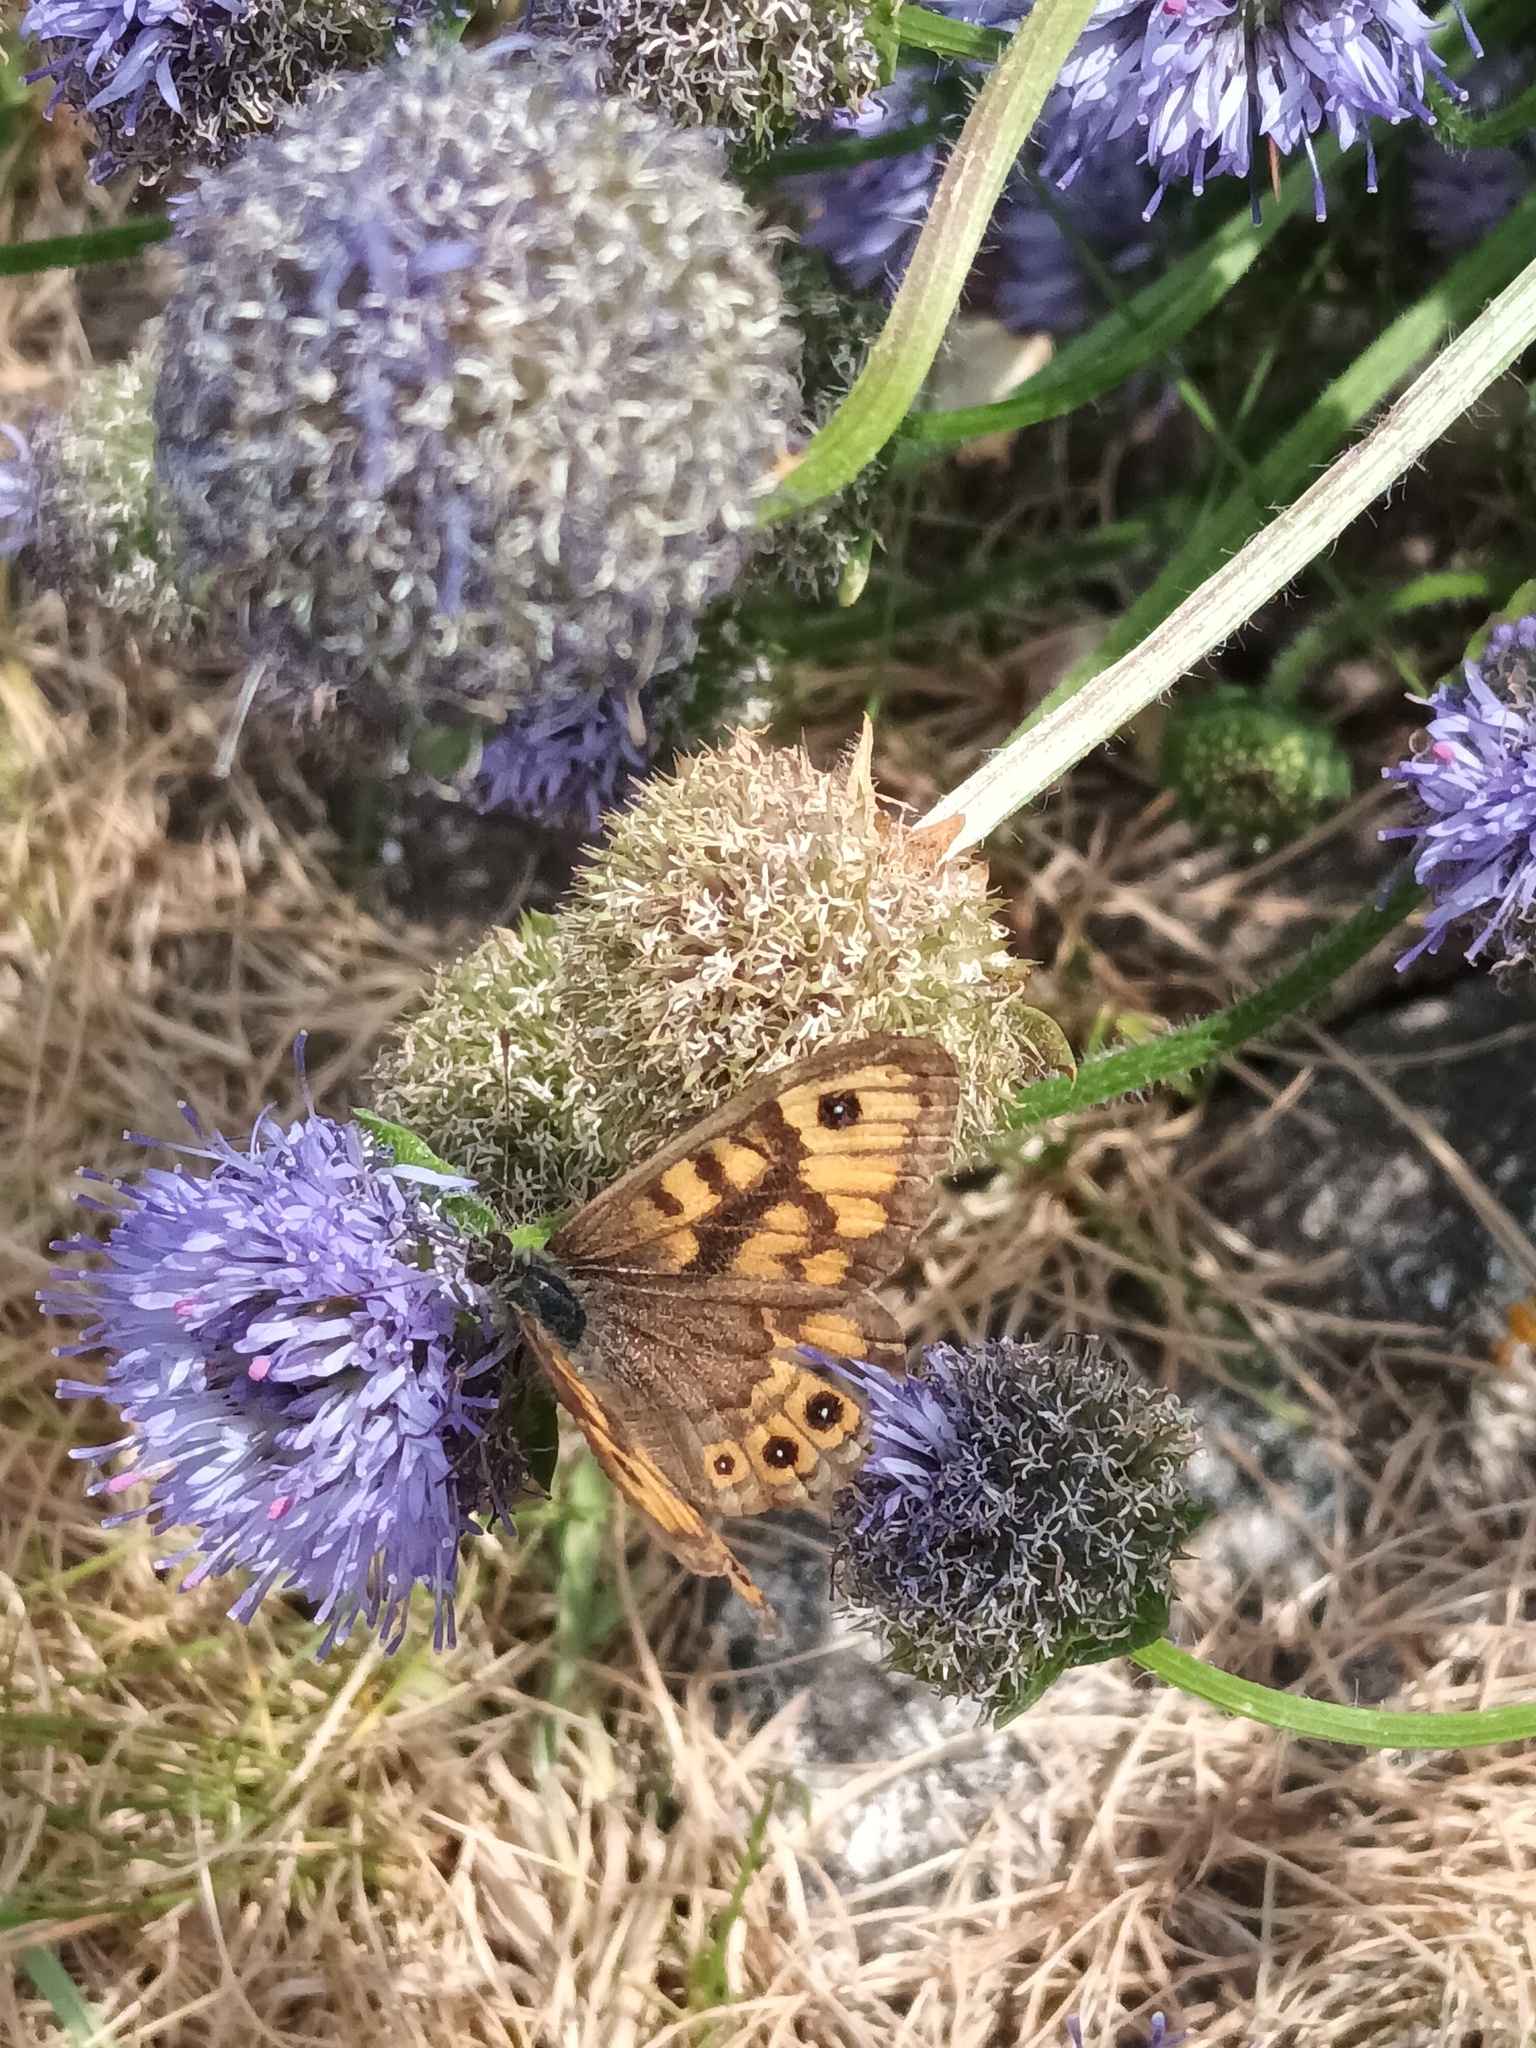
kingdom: Animalia
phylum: Arthropoda
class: Insecta
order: Lepidoptera
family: Nymphalidae
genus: Pararge
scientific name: Pararge Lasiommata megera
